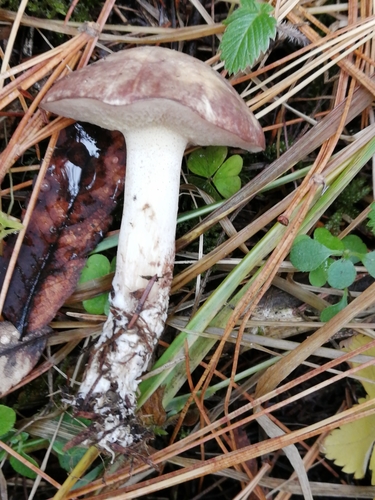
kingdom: Fungi
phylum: Basidiomycota
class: Agaricomycetes
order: Boletales
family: Suillaceae
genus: Suillus
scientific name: Suillus placidus
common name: Slippery white bolete
